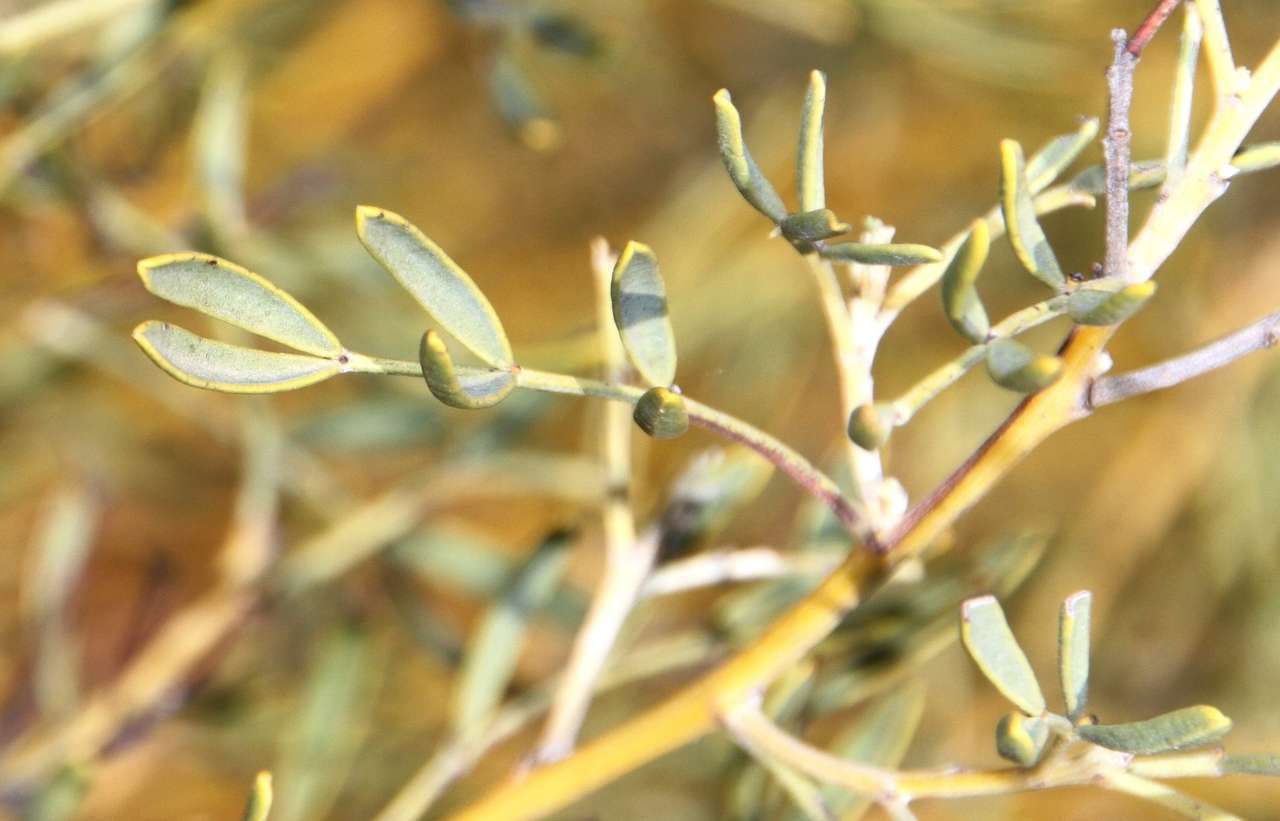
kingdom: Plantae
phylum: Tracheophyta
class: Magnoliopsida
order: Fabales
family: Fabaceae
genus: Senna
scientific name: Senna artemisioides
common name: Burnt-leaved acacia
